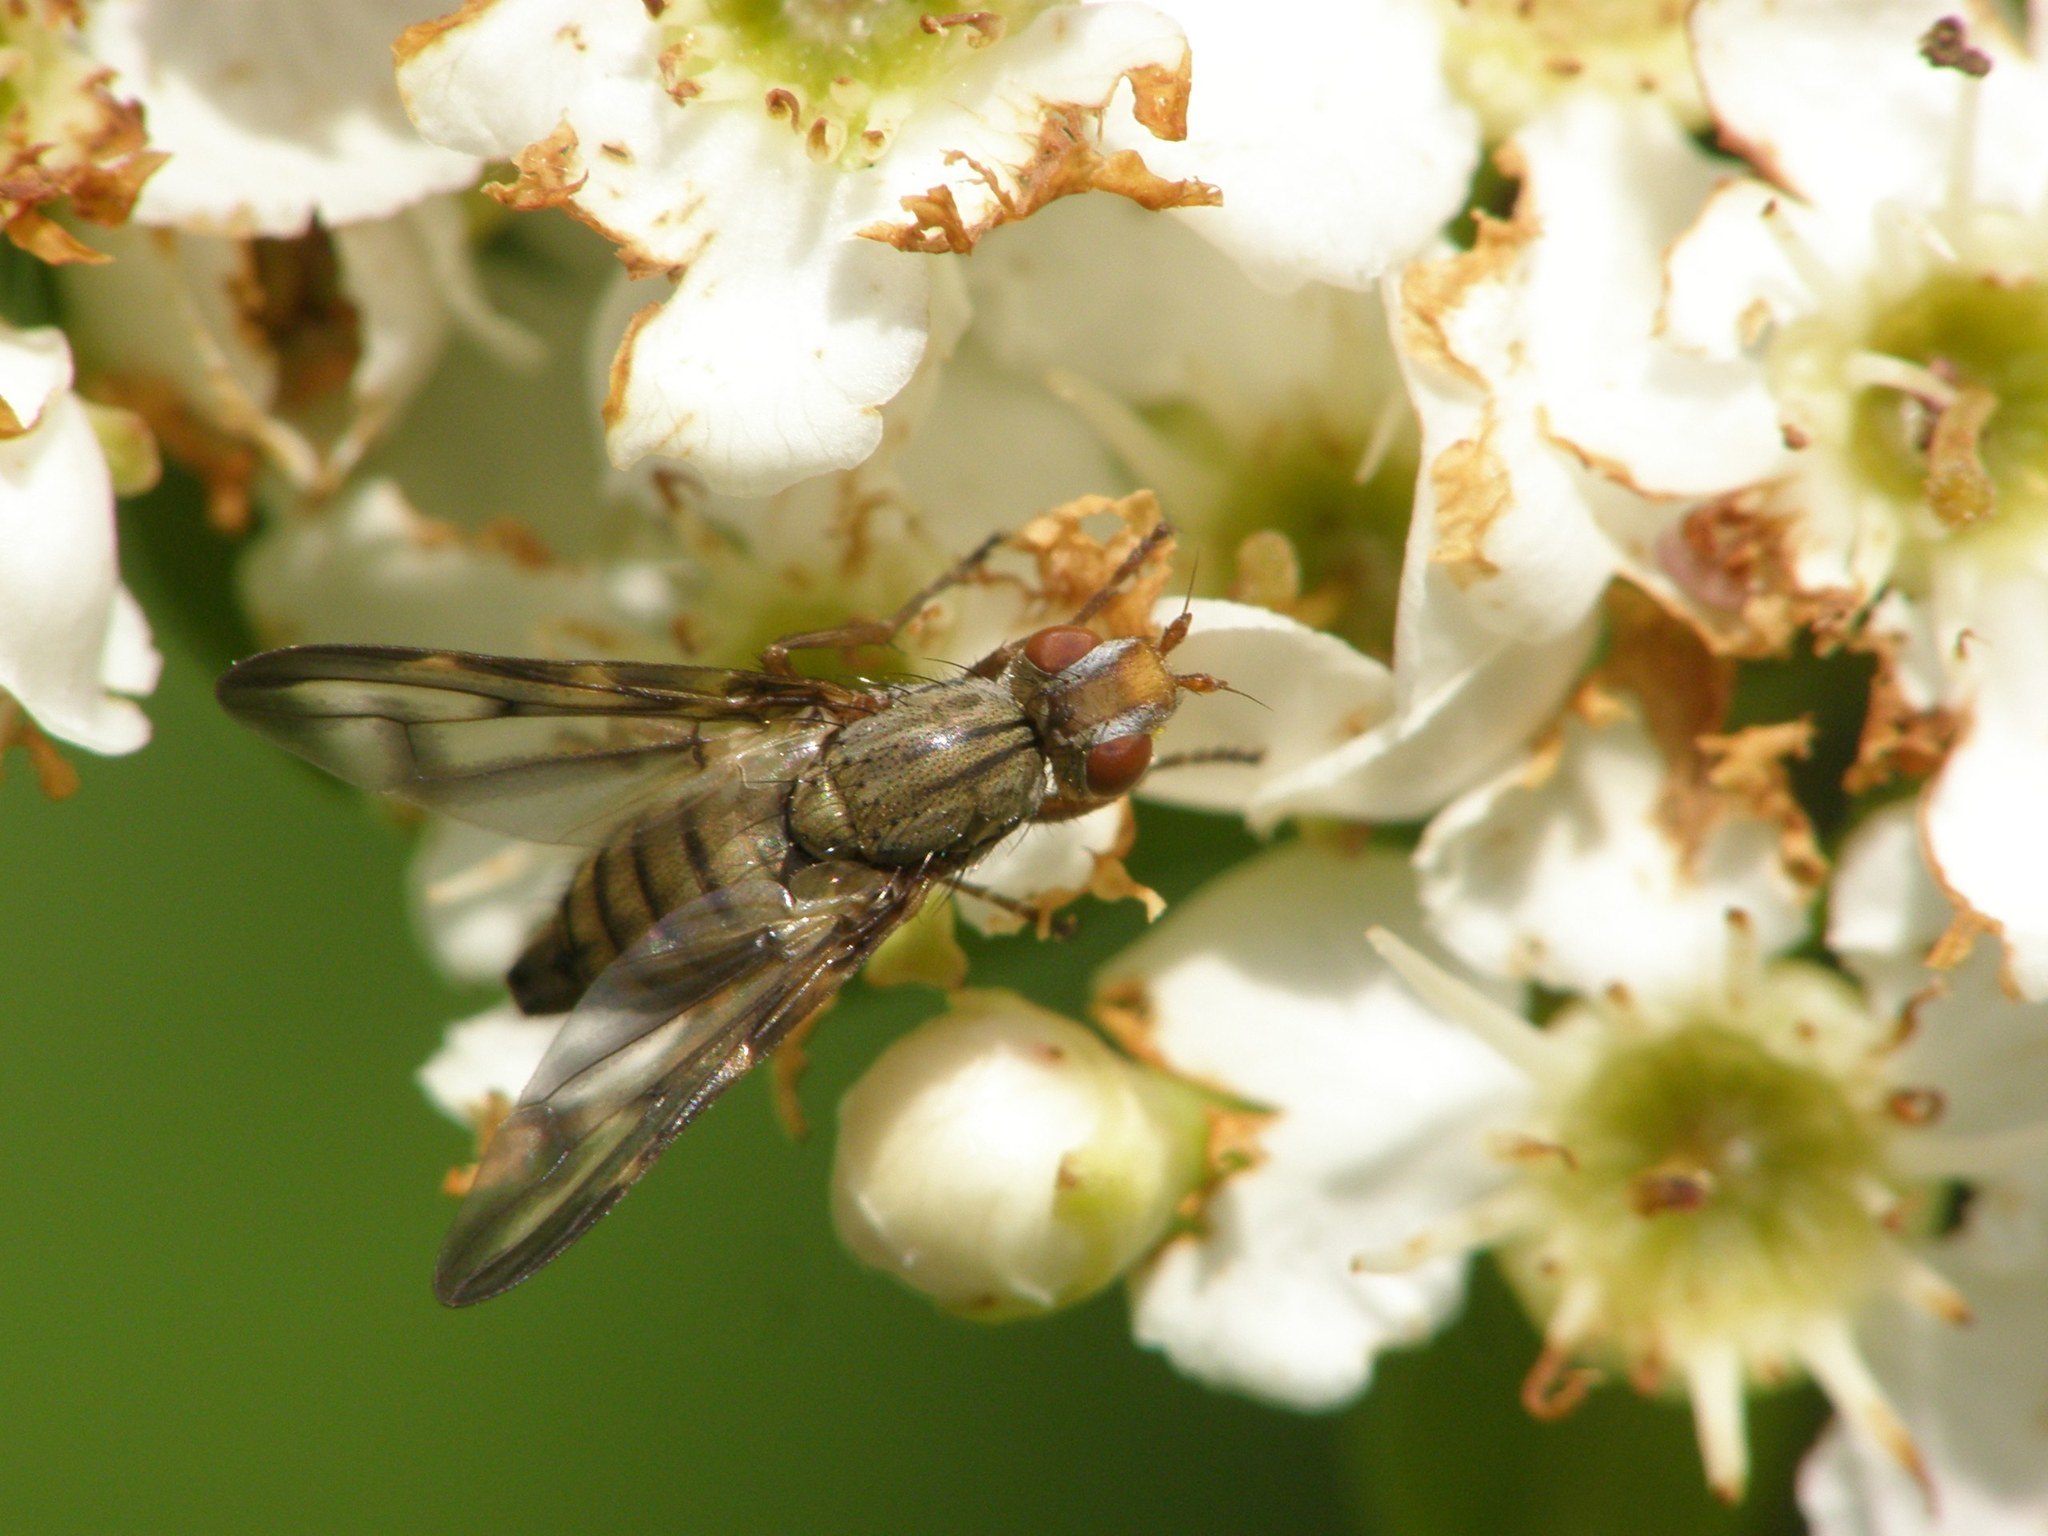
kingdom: Animalia
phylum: Arthropoda
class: Insecta
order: Diptera
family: Ulidiidae
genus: Otites
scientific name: Otites lamed
